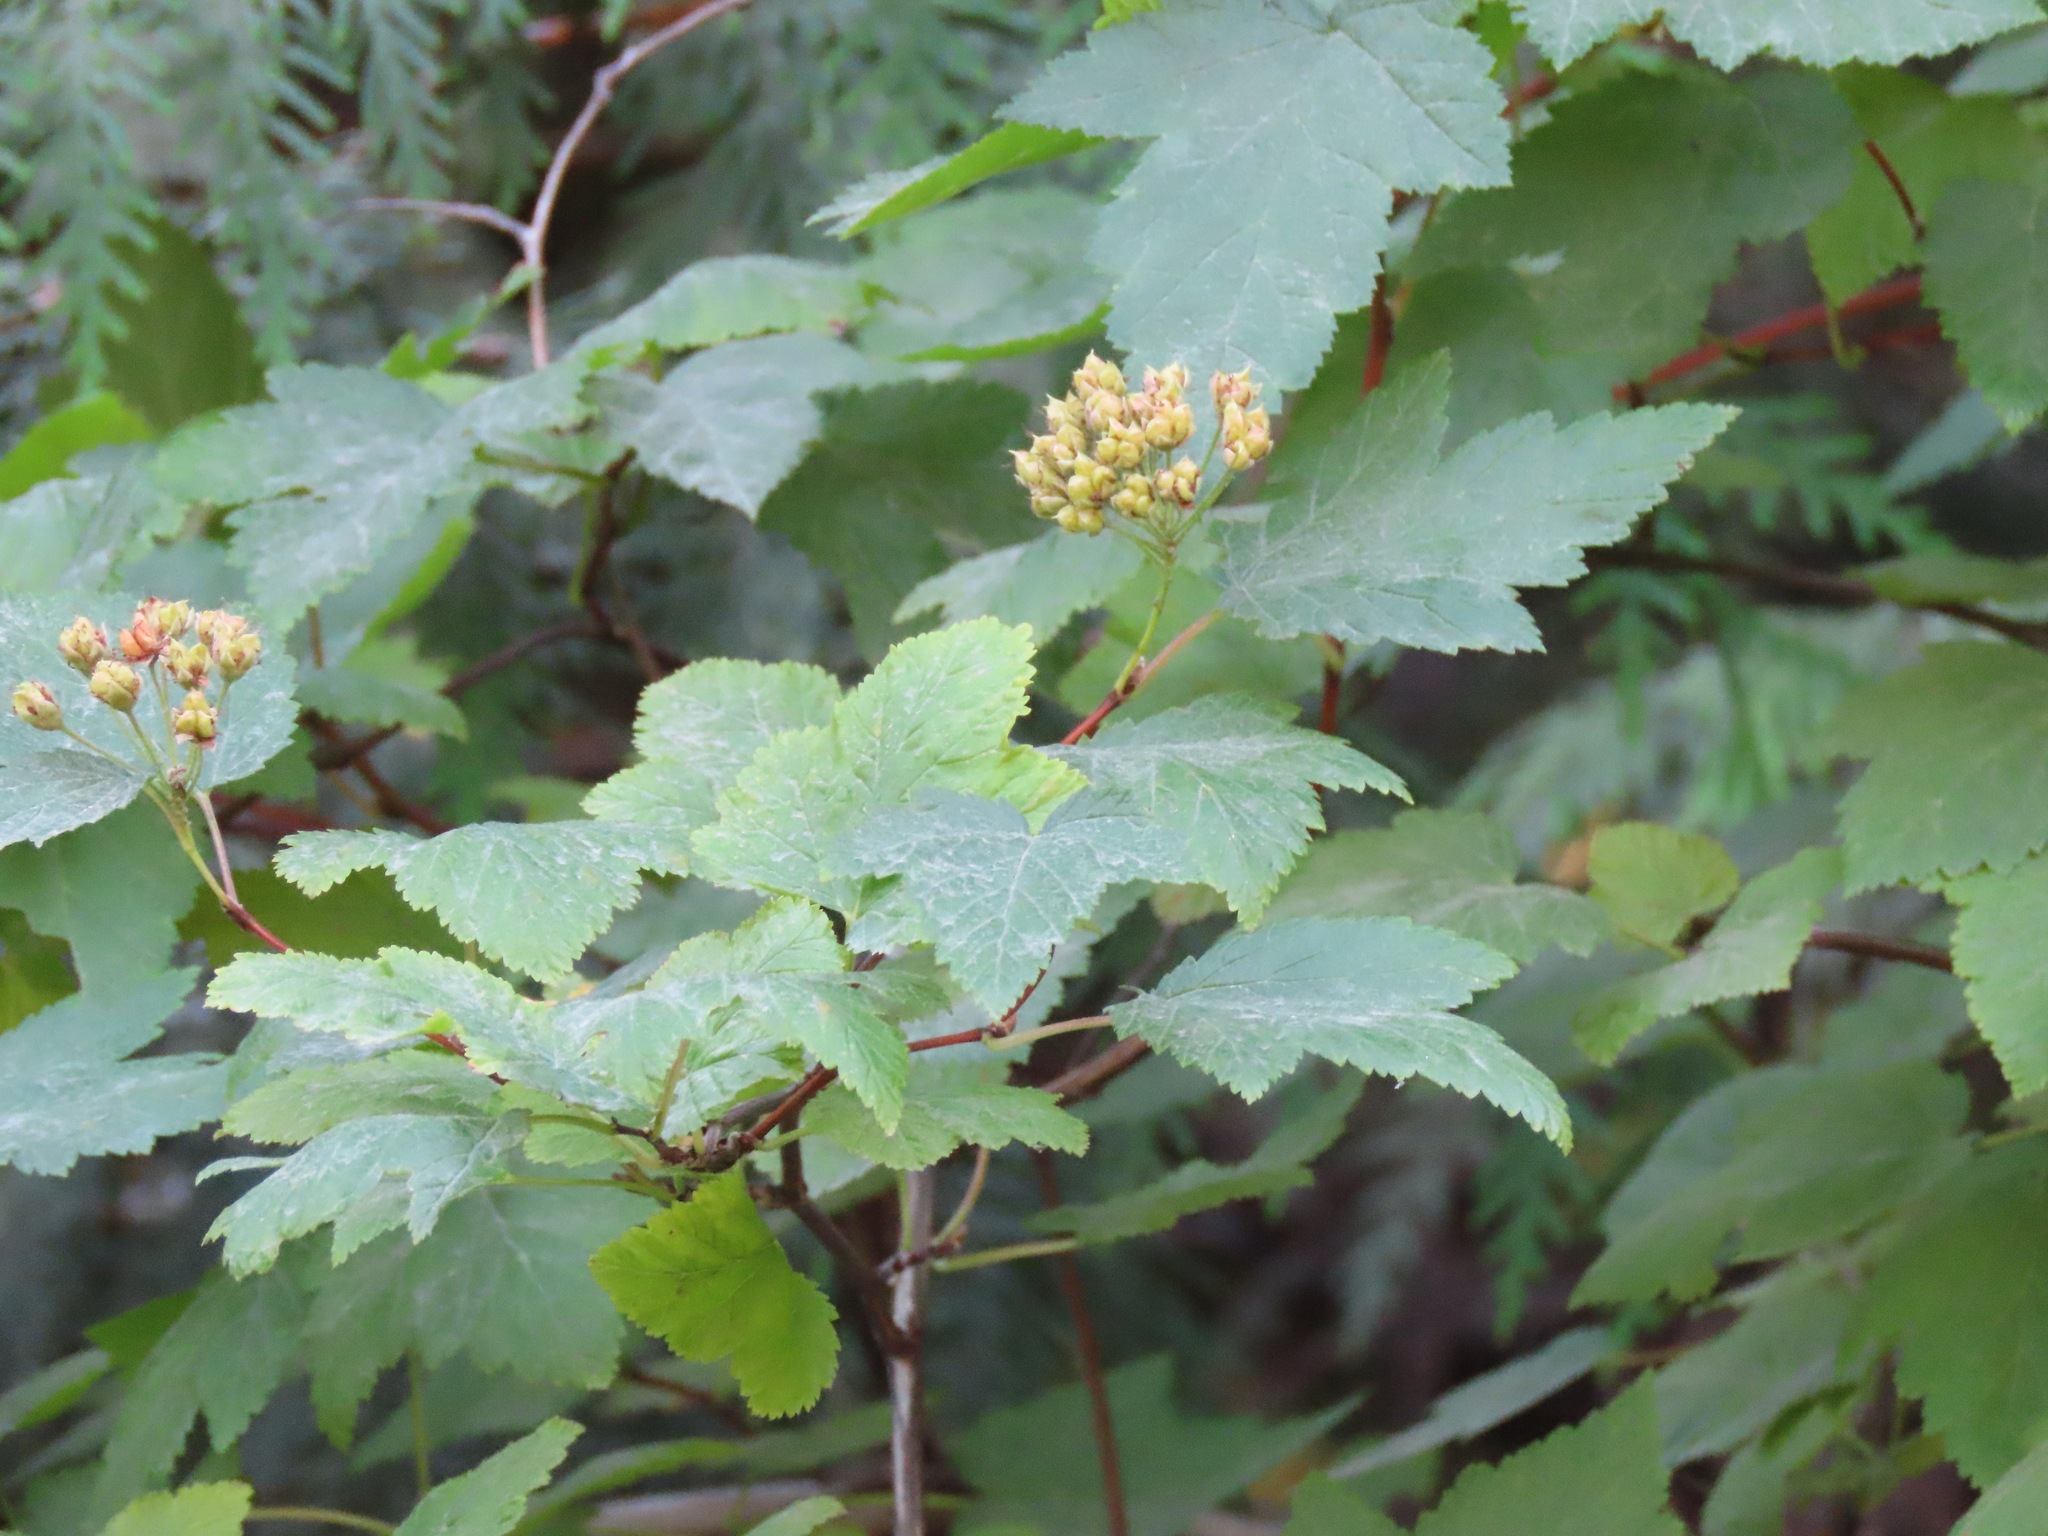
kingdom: Plantae
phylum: Tracheophyta
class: Magnoliopsida
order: Rosales
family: Rosaceae
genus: Physocarpus
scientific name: Physocarpus capitatus
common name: Pacific ninebark
